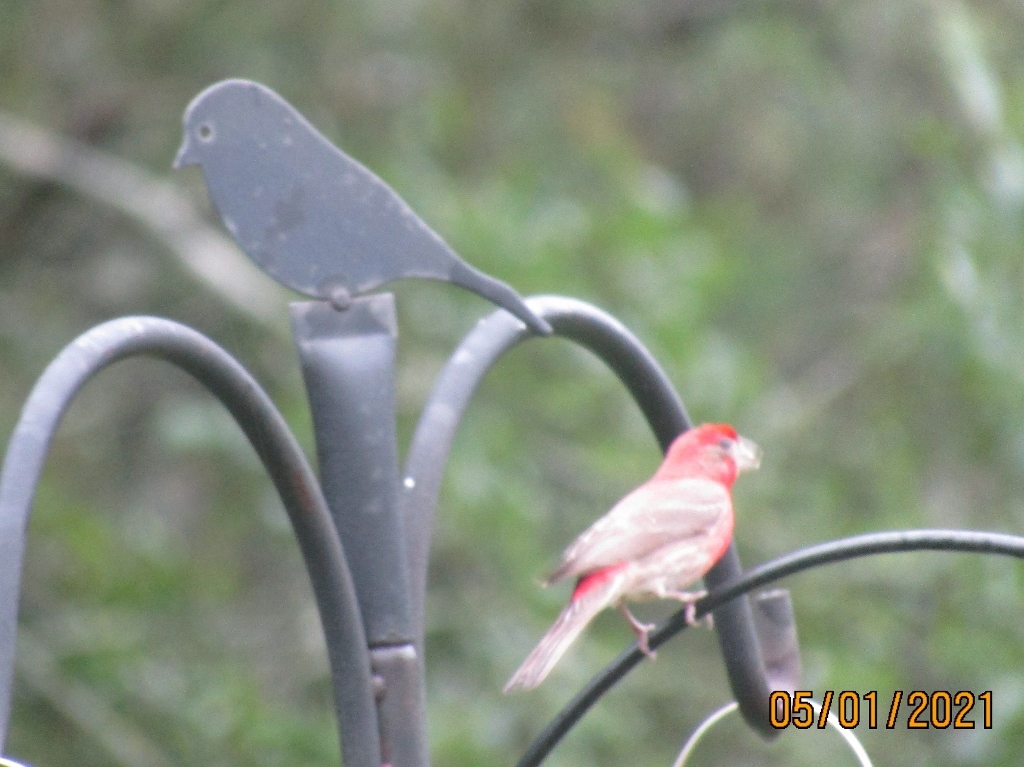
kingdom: Animalia
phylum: Chordata
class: Aves
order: Passeriformes
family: Fringillidae
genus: Haemorhous
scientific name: Haemorhous mexicanus
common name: House finch
